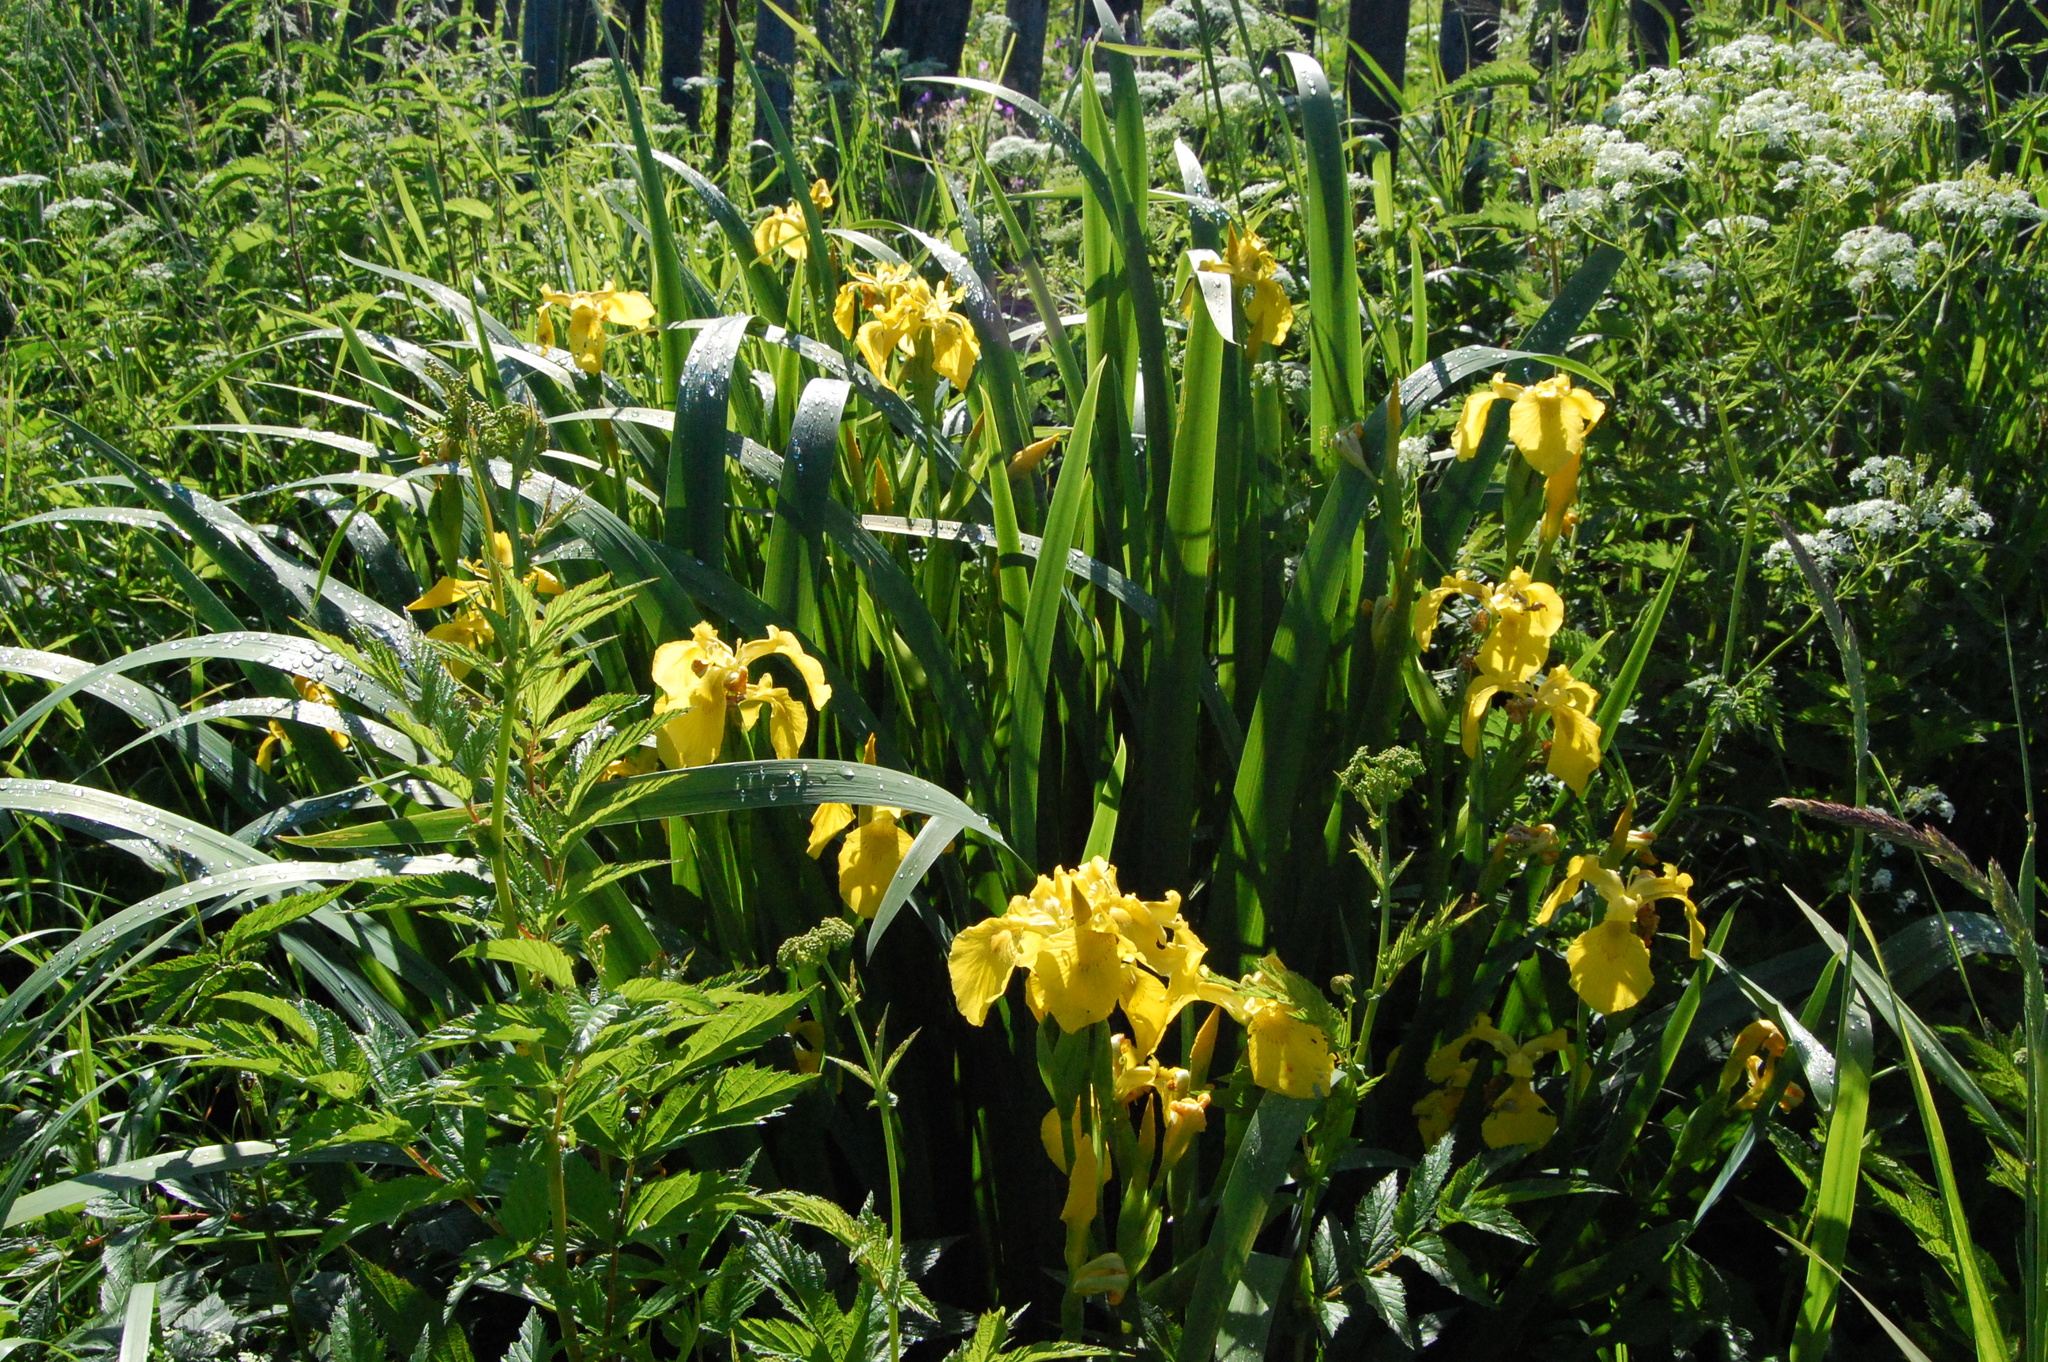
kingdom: Plantae
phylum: Tracheophyta
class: Liliopsida
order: Asparagales
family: Iridaceae
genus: Iris
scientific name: Iris pseudacorus
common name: Yellow flag
